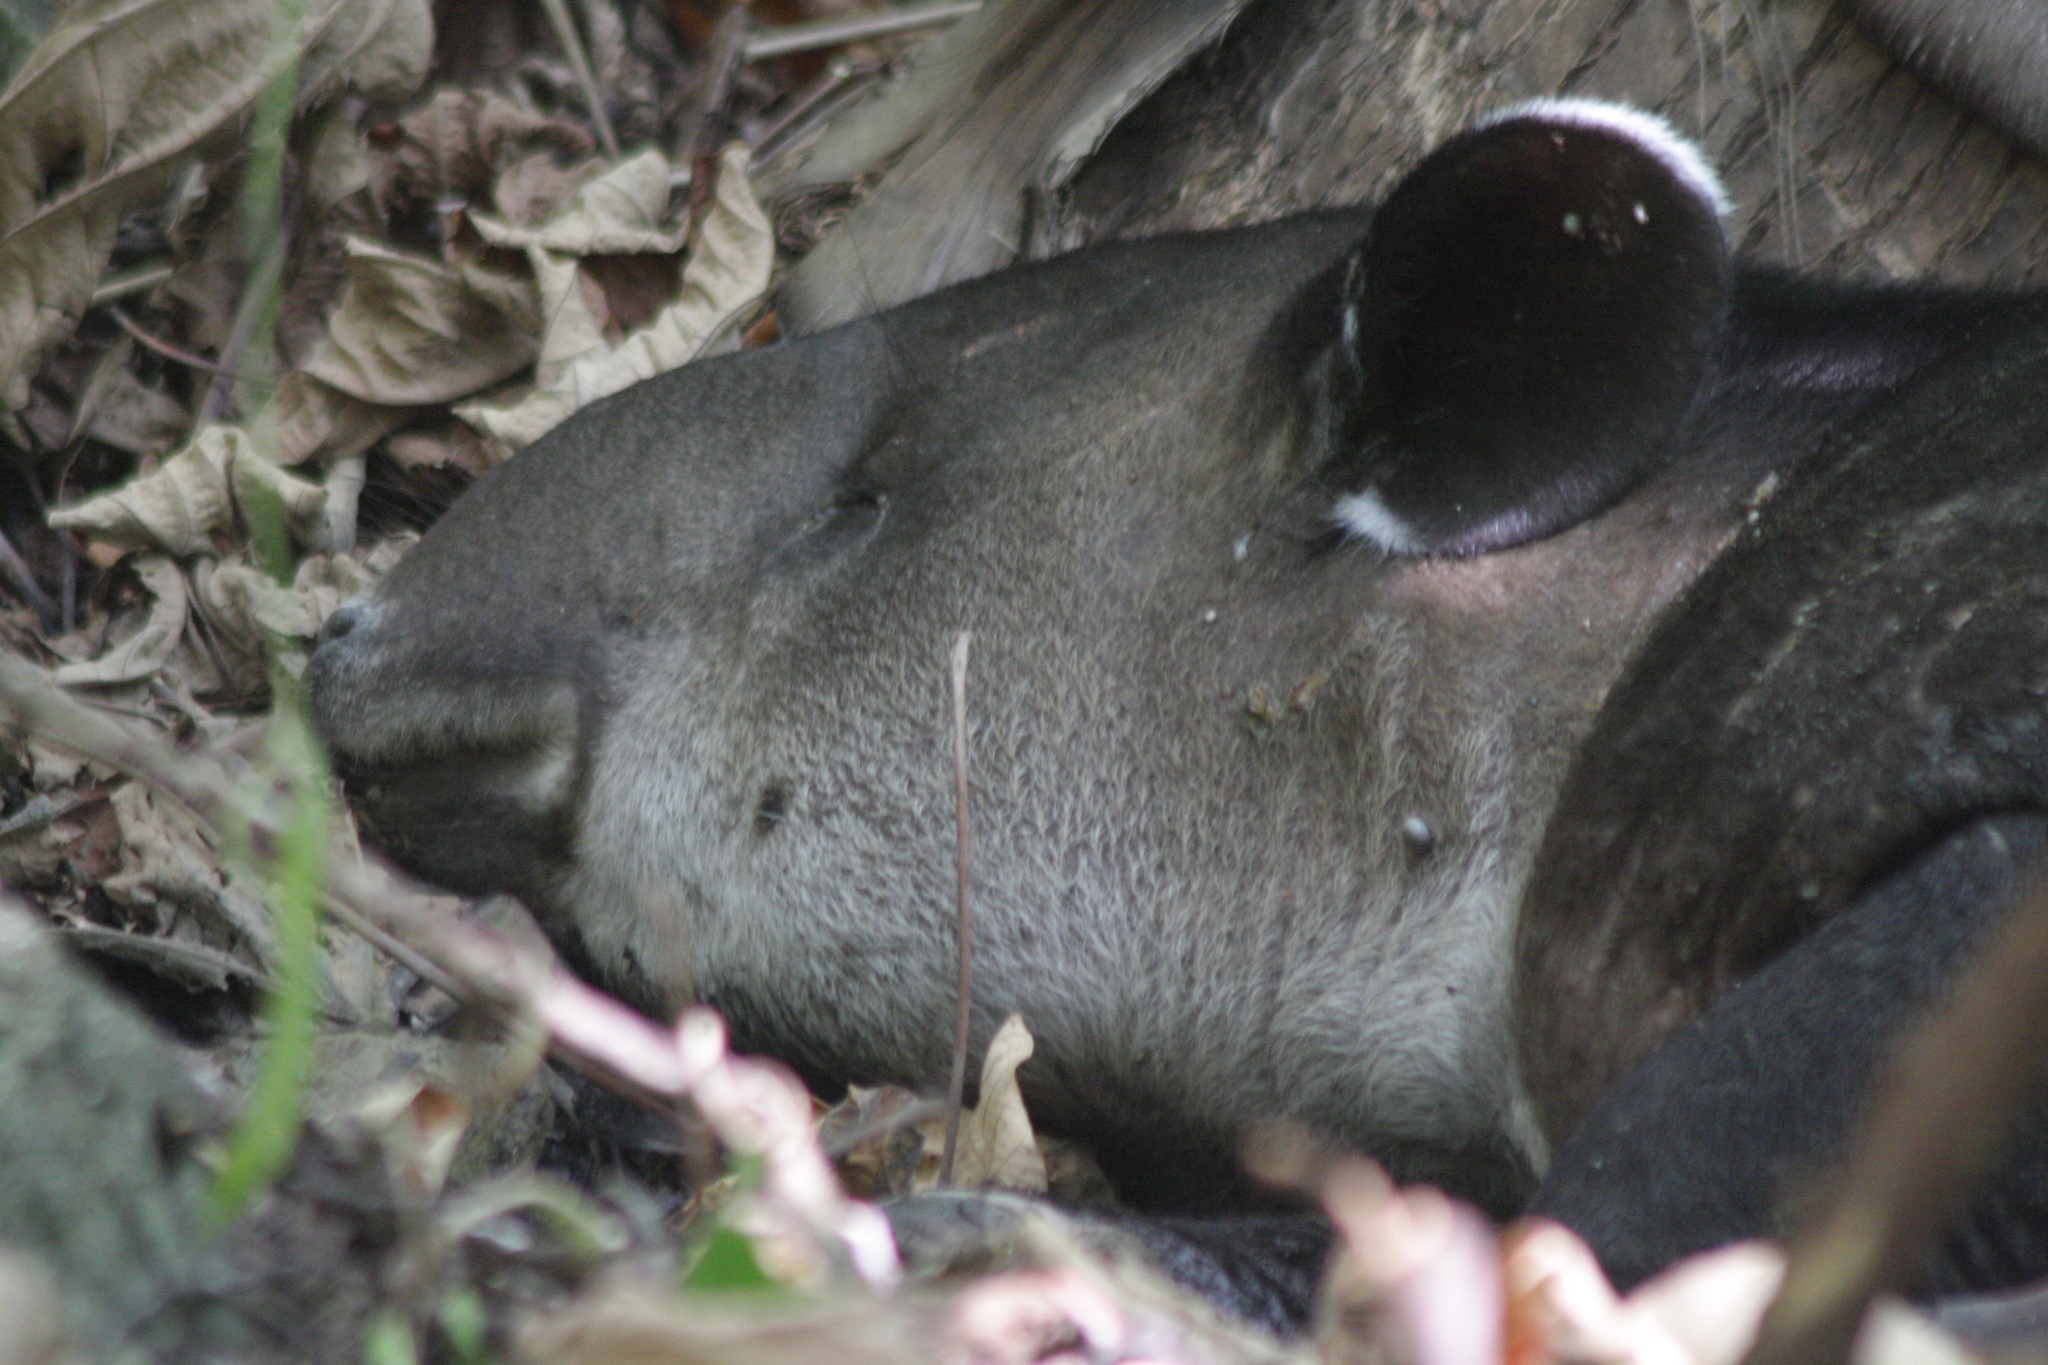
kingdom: Animalia
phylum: Chordata
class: Mammalia
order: Perissodactyla
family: Tapiridae
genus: Tapirella
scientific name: Tapirella bairdii
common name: Baird's tapir
